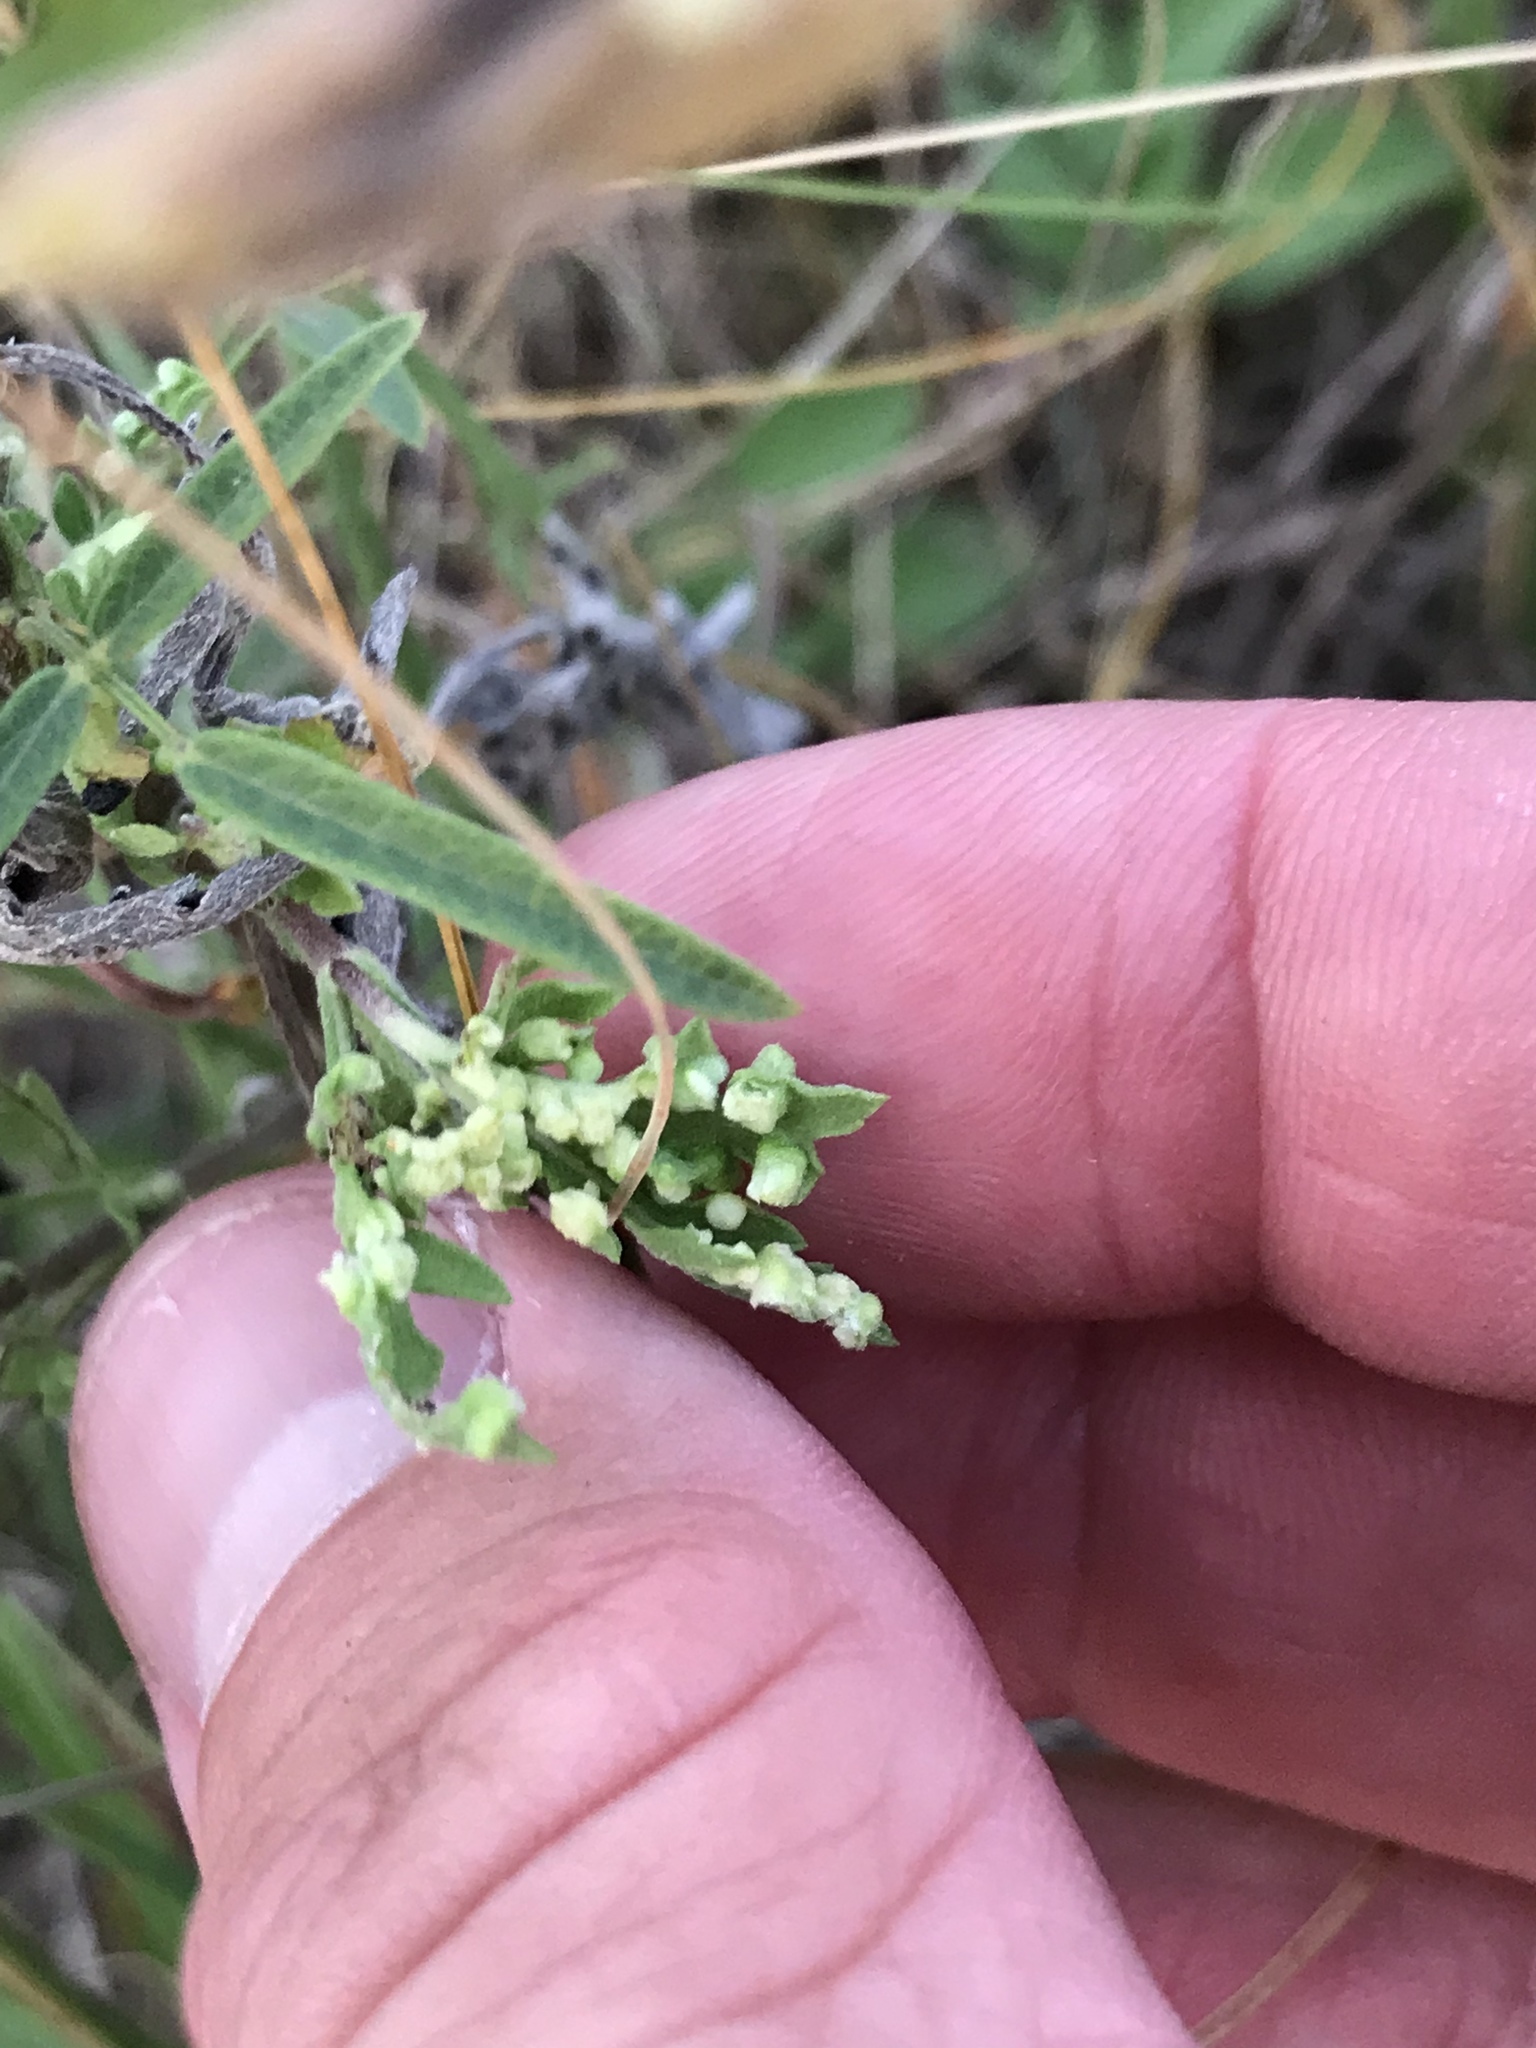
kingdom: Animalia
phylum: Arthropoda
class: Arachnida
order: Trombidiformes
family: Eriophyidae
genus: Aceria
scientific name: Aceria
